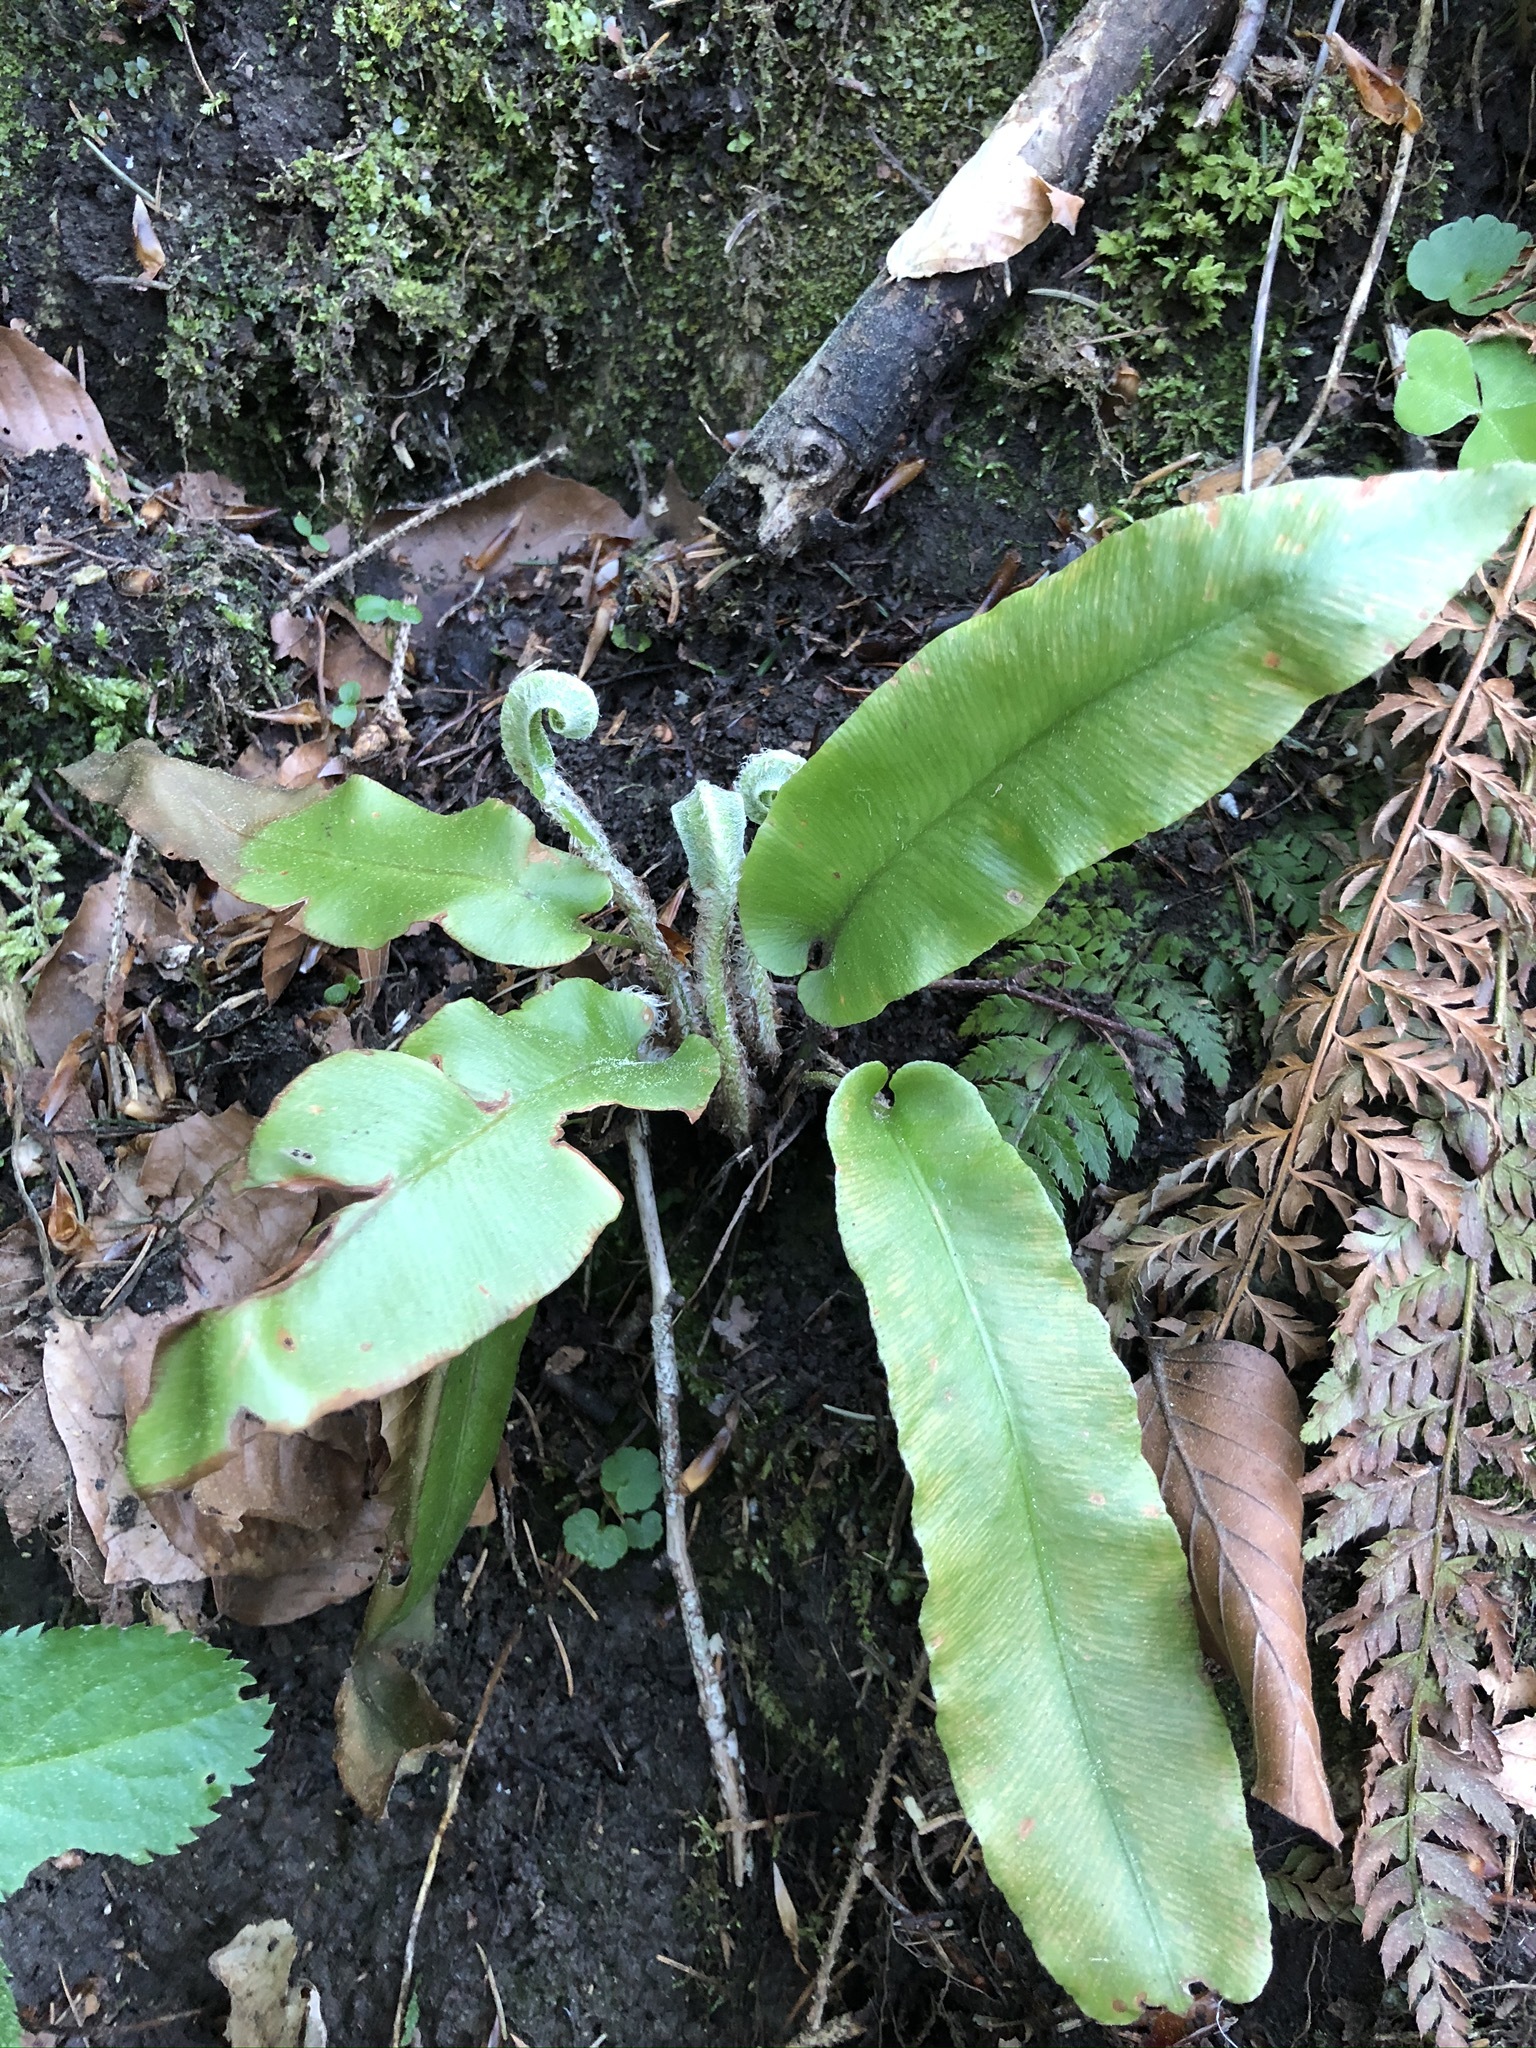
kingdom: Plantae
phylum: Tracheophyta
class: Polypodiopsida
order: Polypodiales
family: Aspleniaceae
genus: Asplenium
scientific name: Asplenium scolopendrium
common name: Hart's-tongue fern
